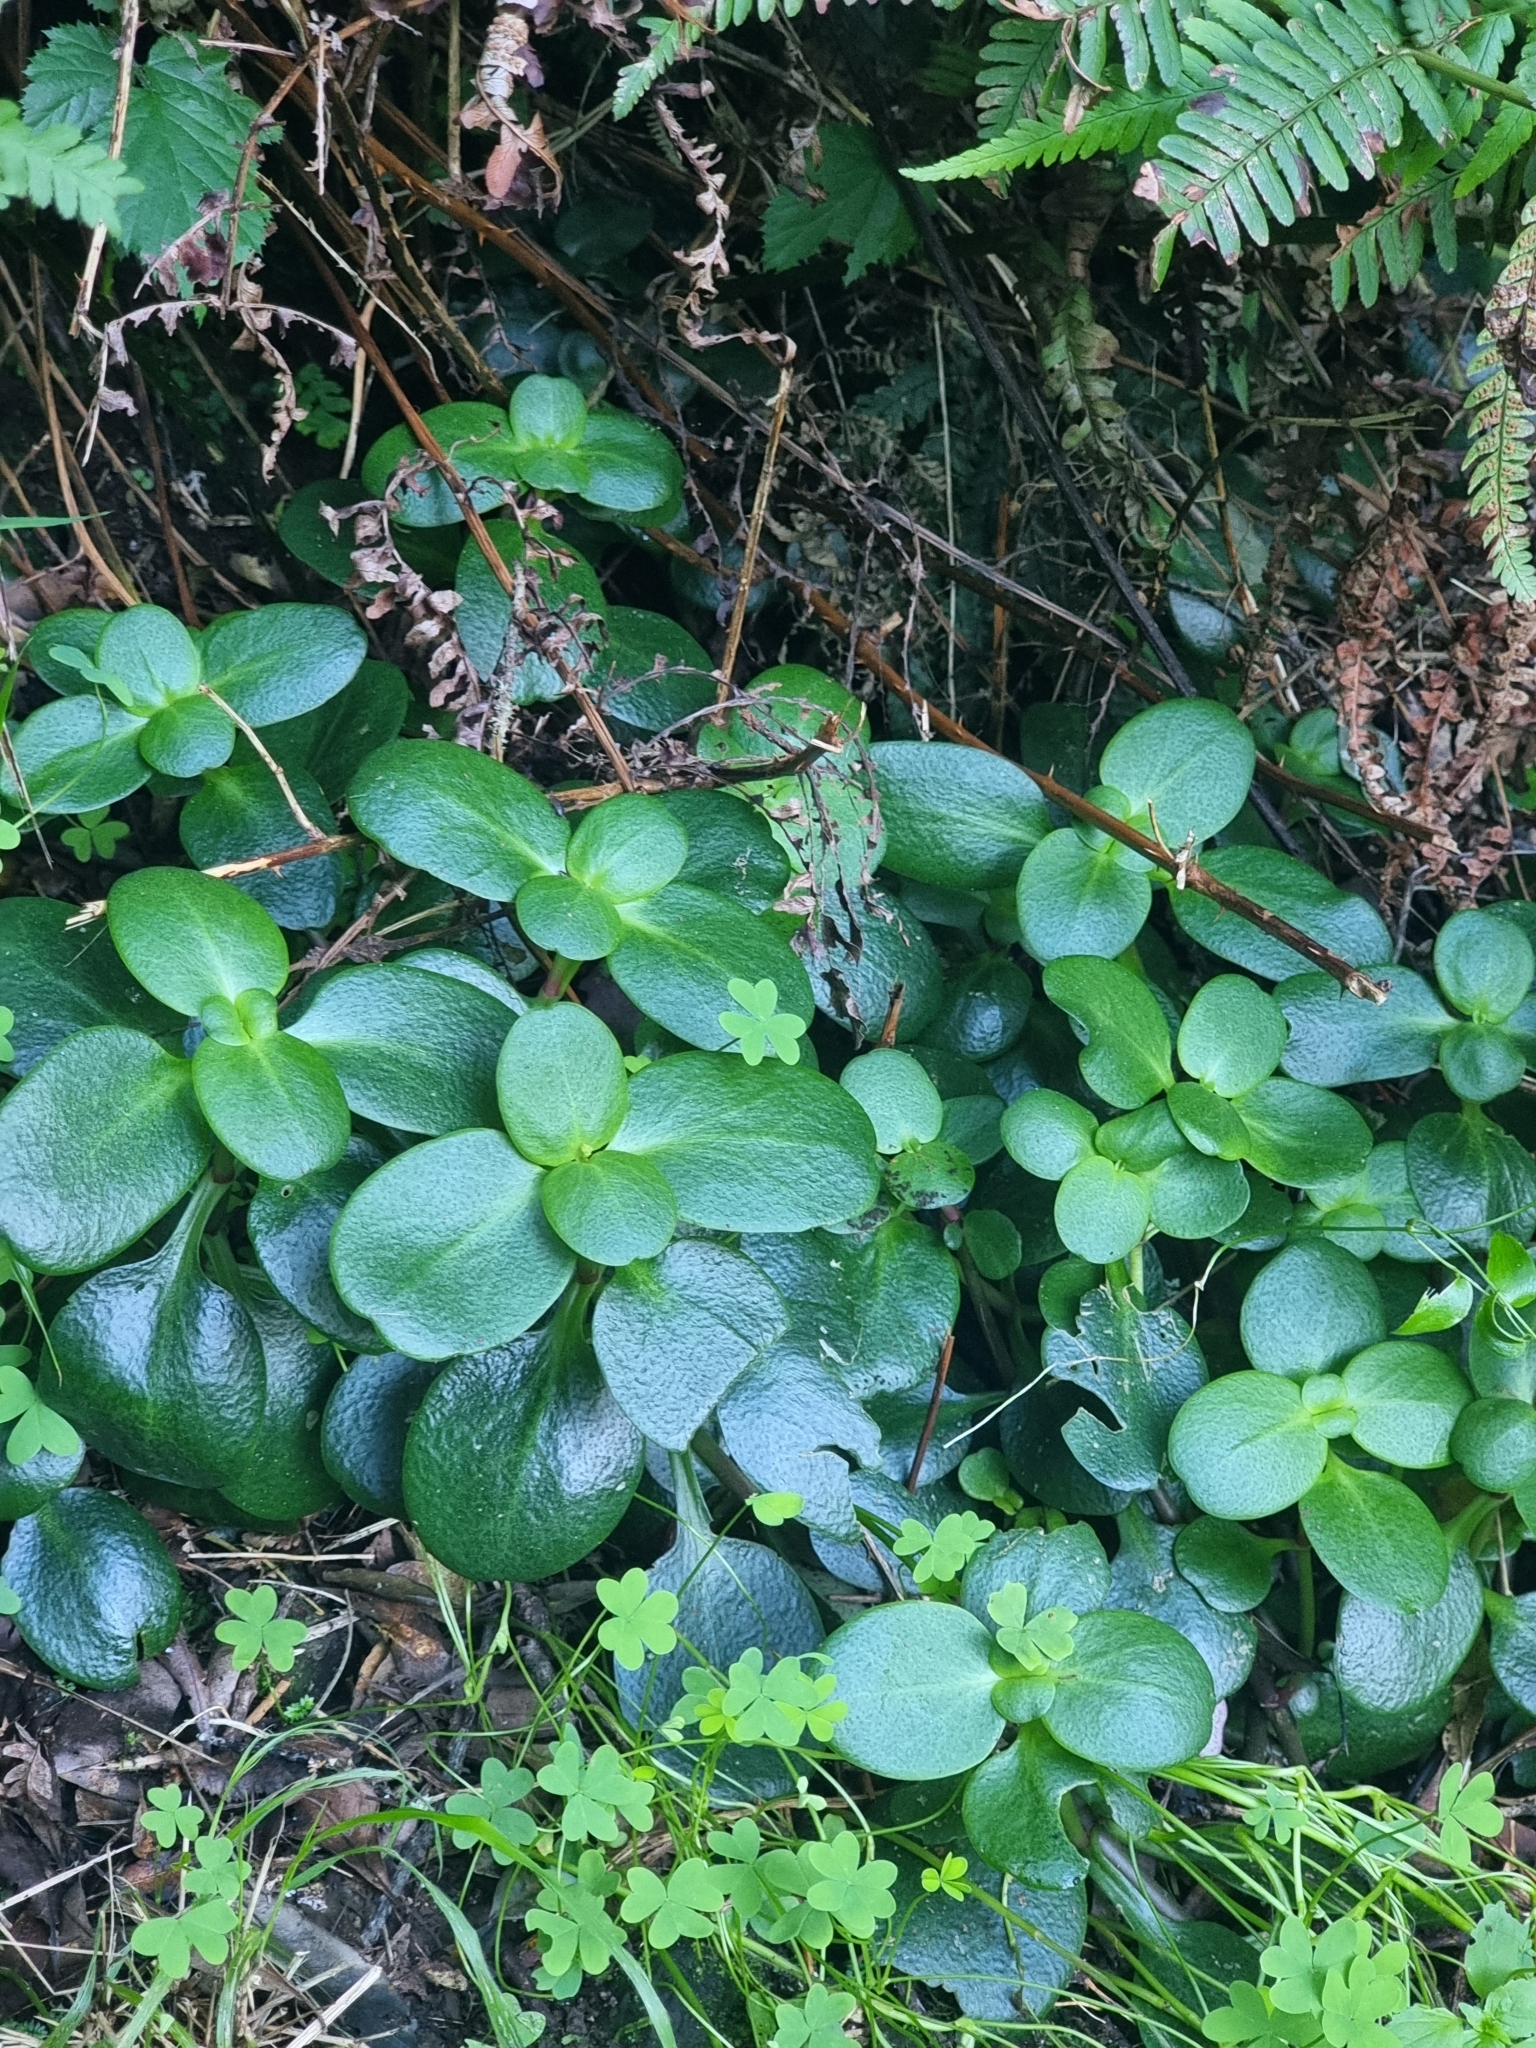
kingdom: Plantae
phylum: Tracheophyta
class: Magnoliopsida
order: Saxifragales
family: Crassulaceae
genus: Crassula
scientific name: Crassula multicava
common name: Cape province pygmyweed
